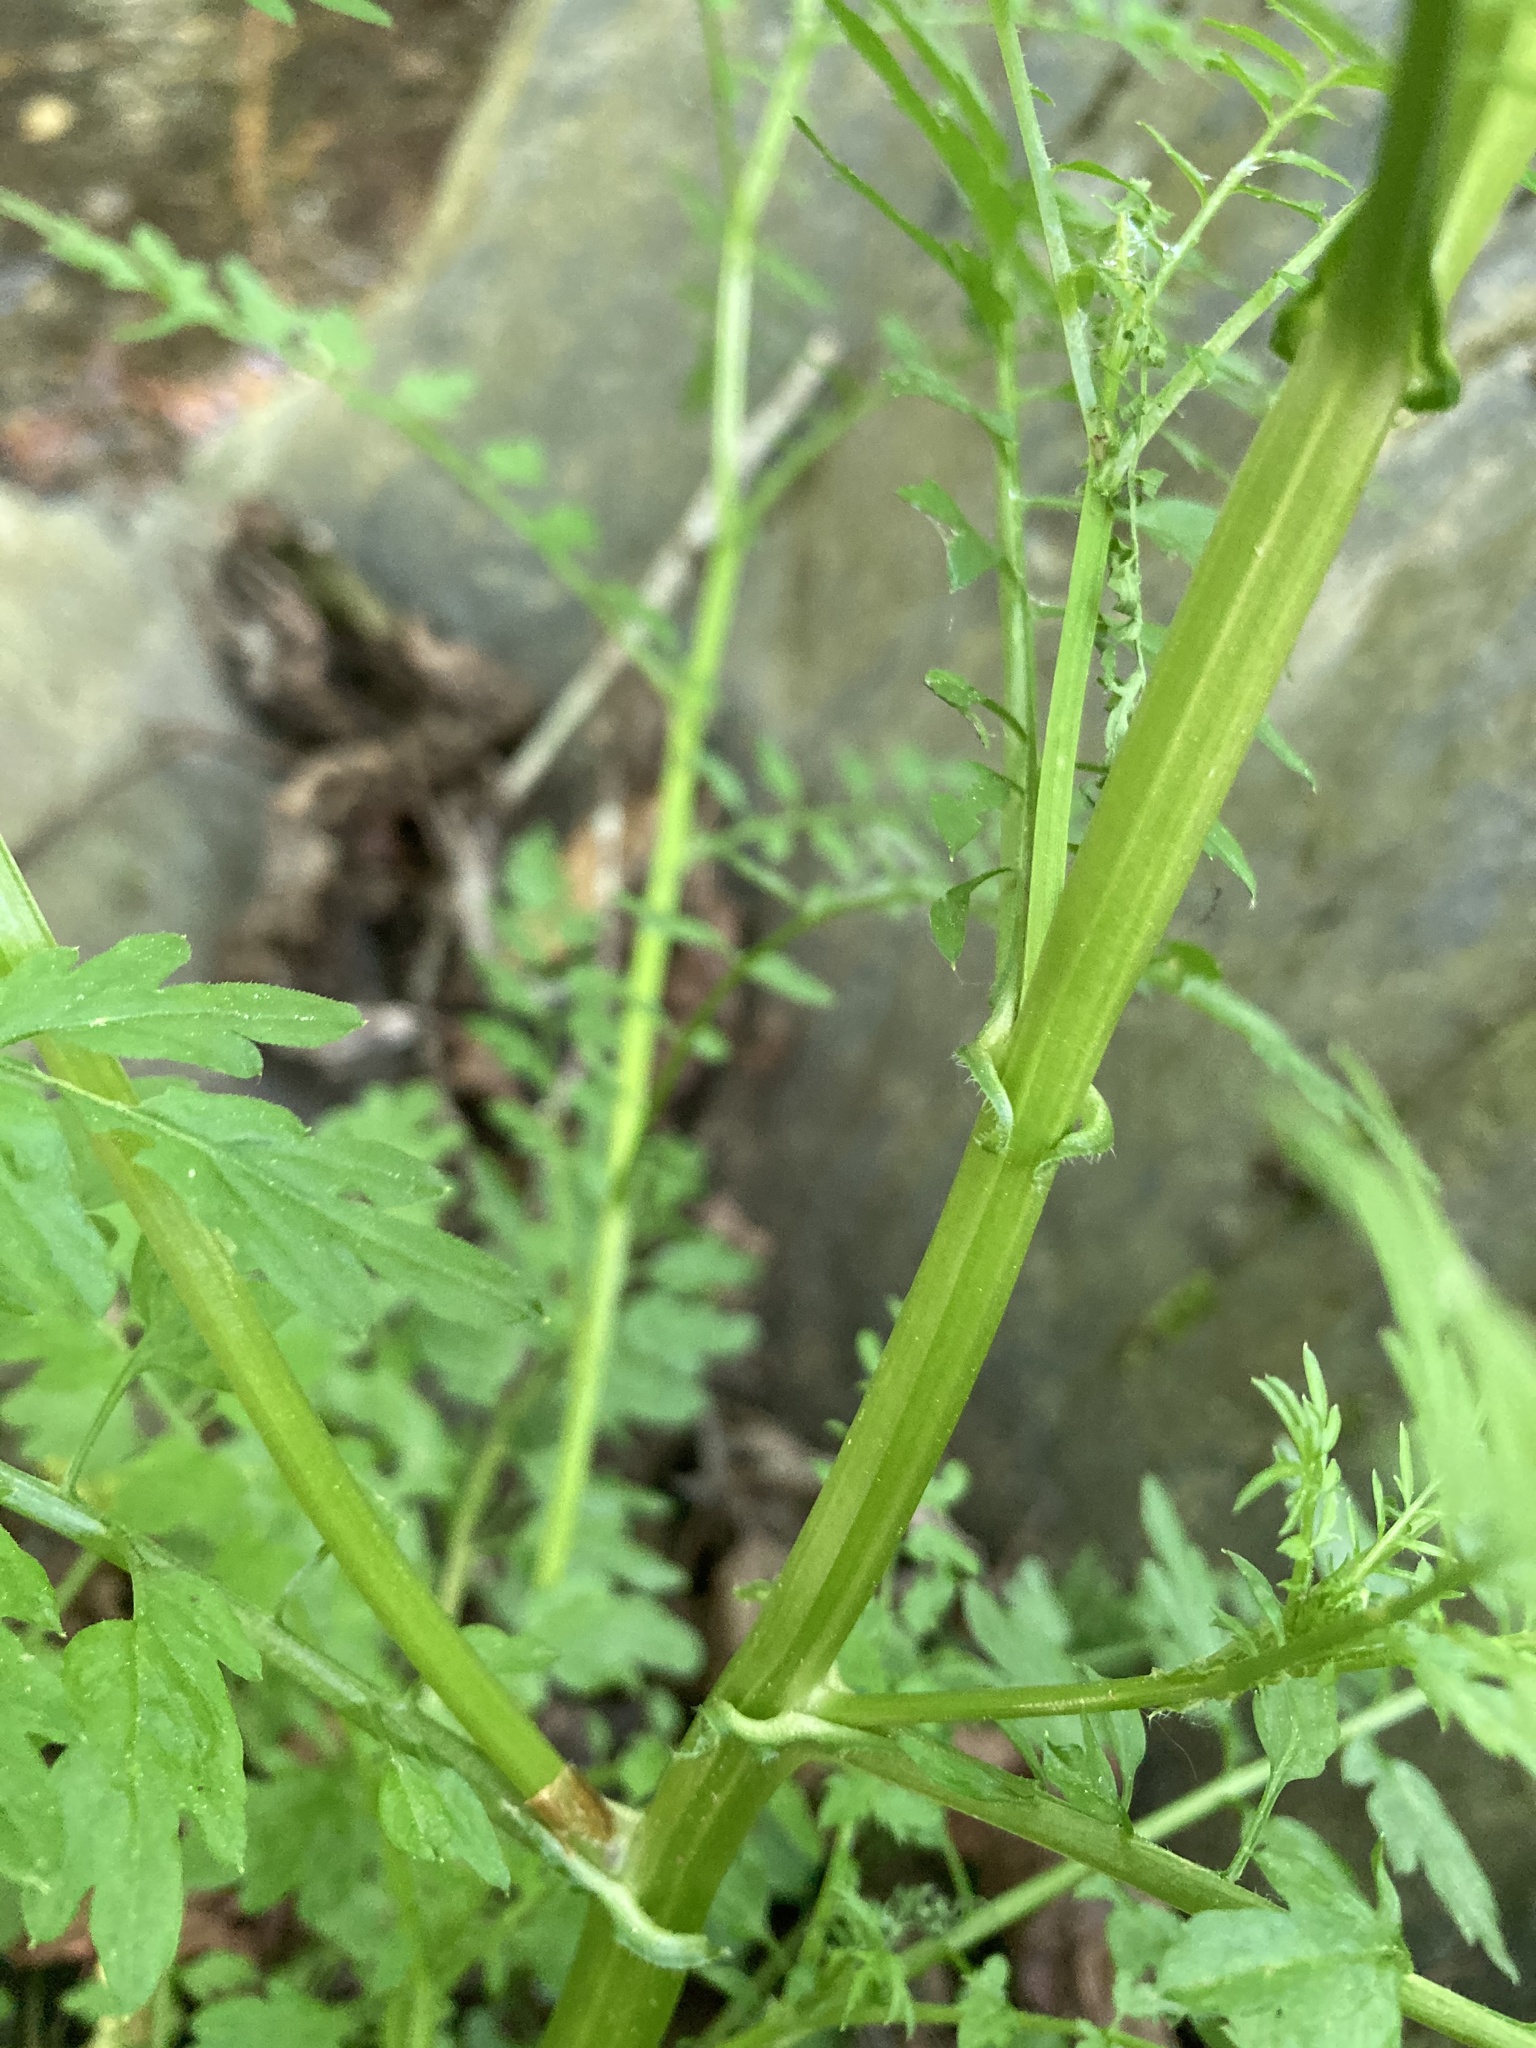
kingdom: Plantae
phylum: Tracheophyta
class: Magnoliopsida
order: Brassicales
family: Brassicaceae
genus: Cardamine
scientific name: Cardamine impatiens
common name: Narrow-leaved bitter-cress
